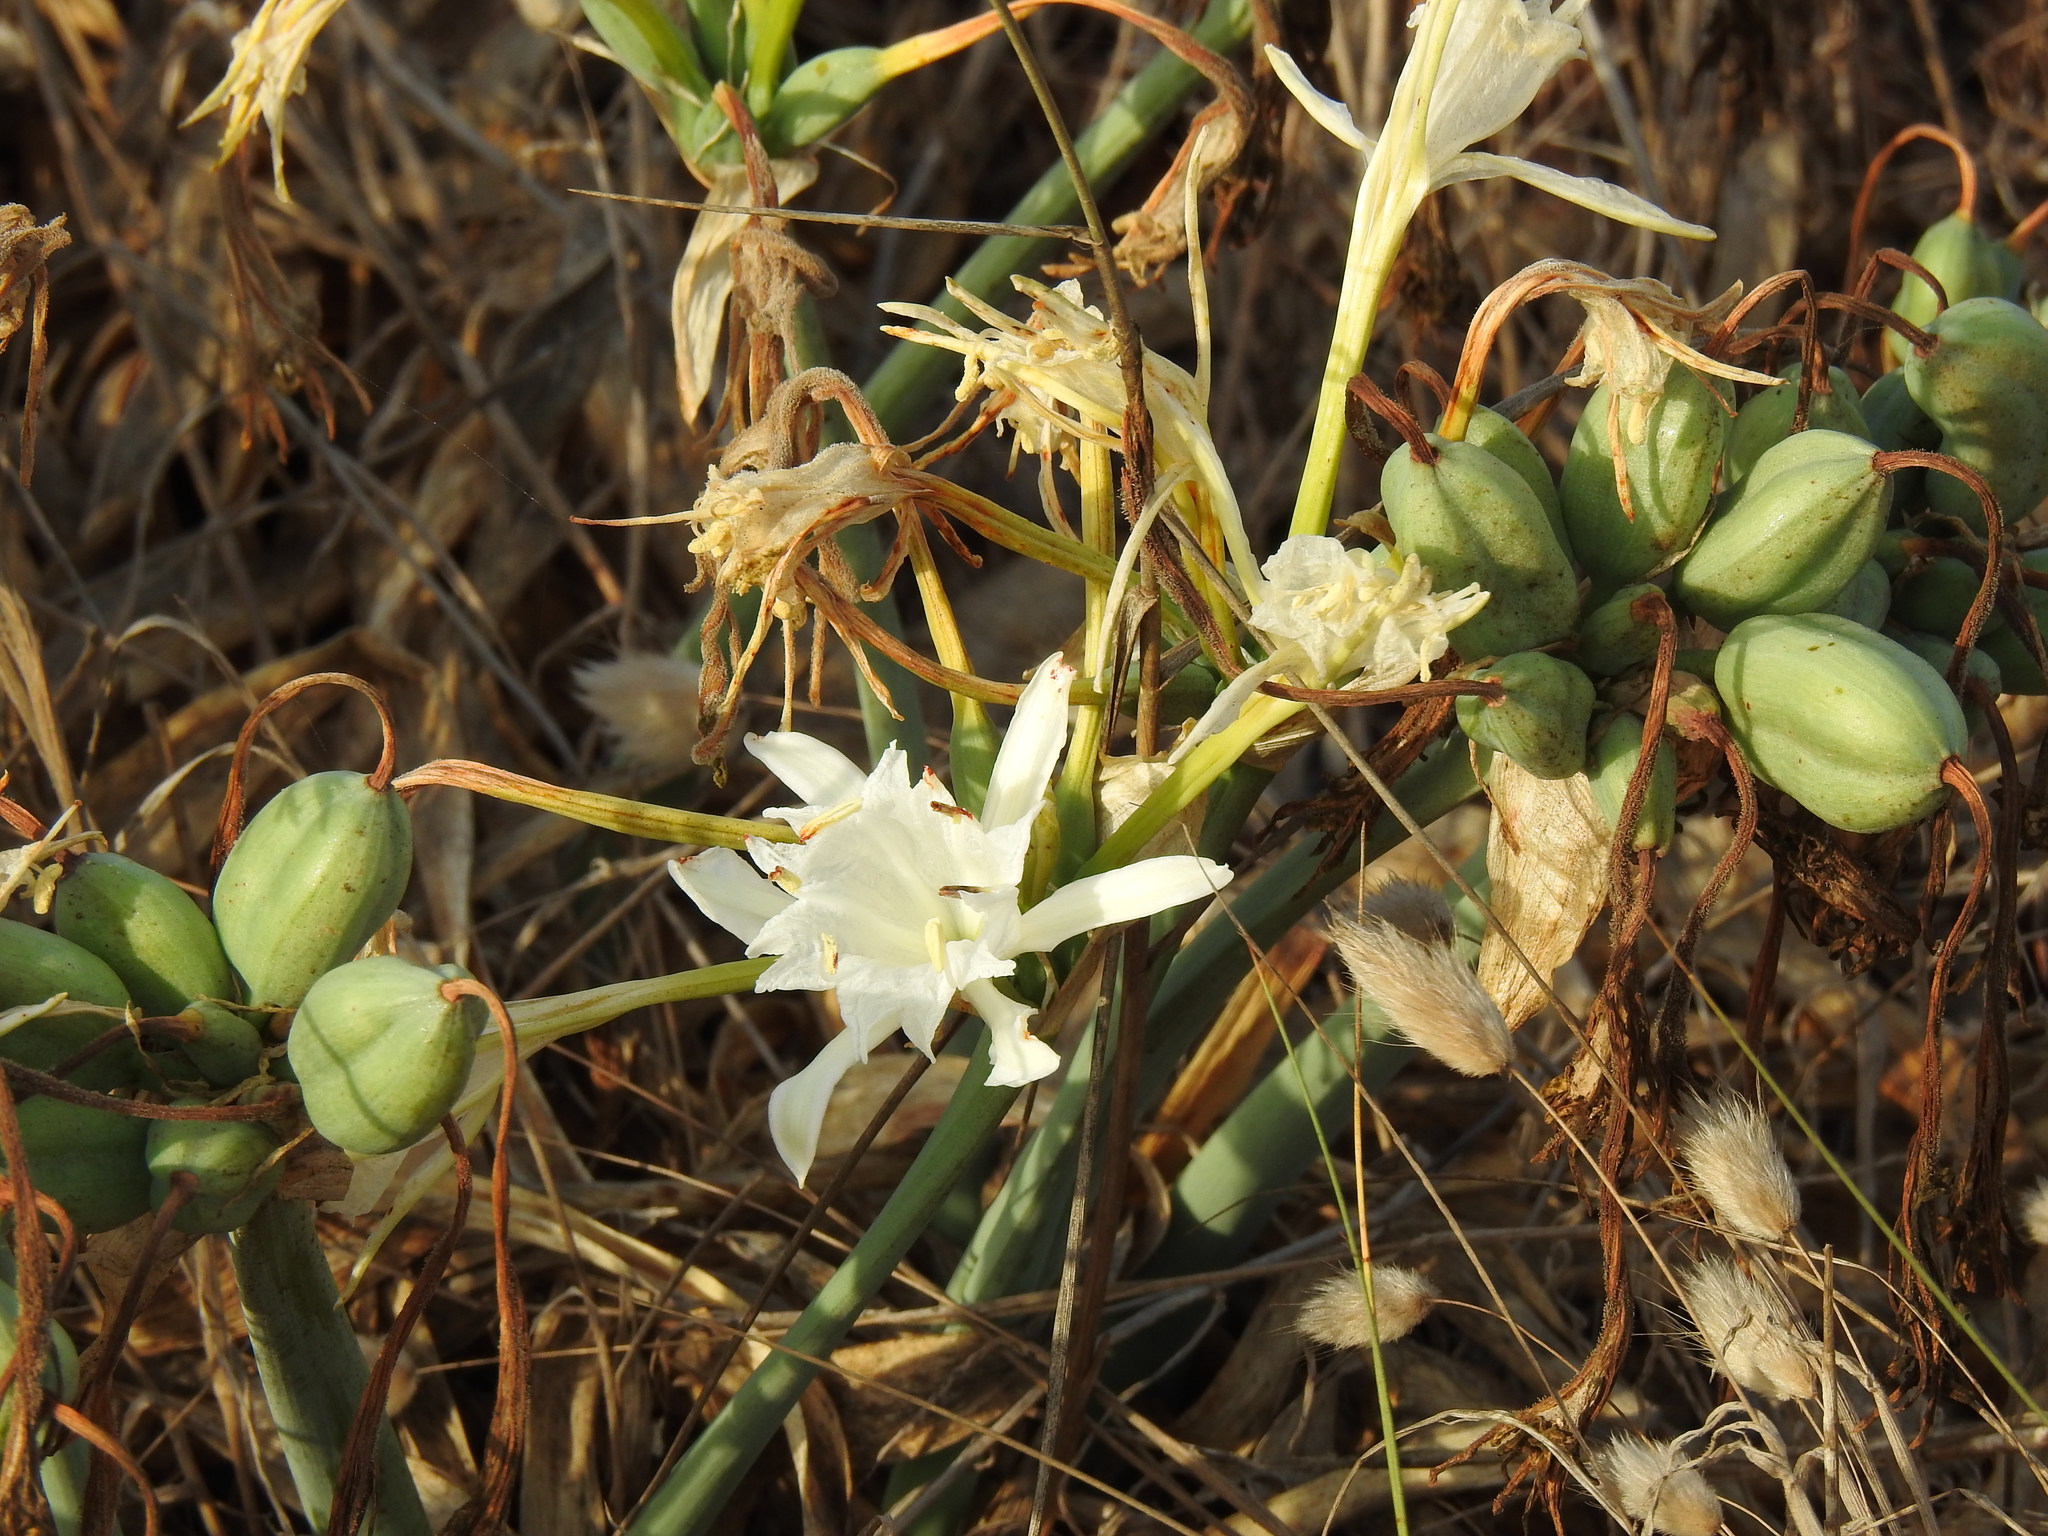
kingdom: Plantae
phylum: Tracheophyta
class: Liliopsida
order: Asparagales
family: Amaryllidaceae
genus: Pancratium
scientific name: Pancratium maritimum
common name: Sea-daffodil
